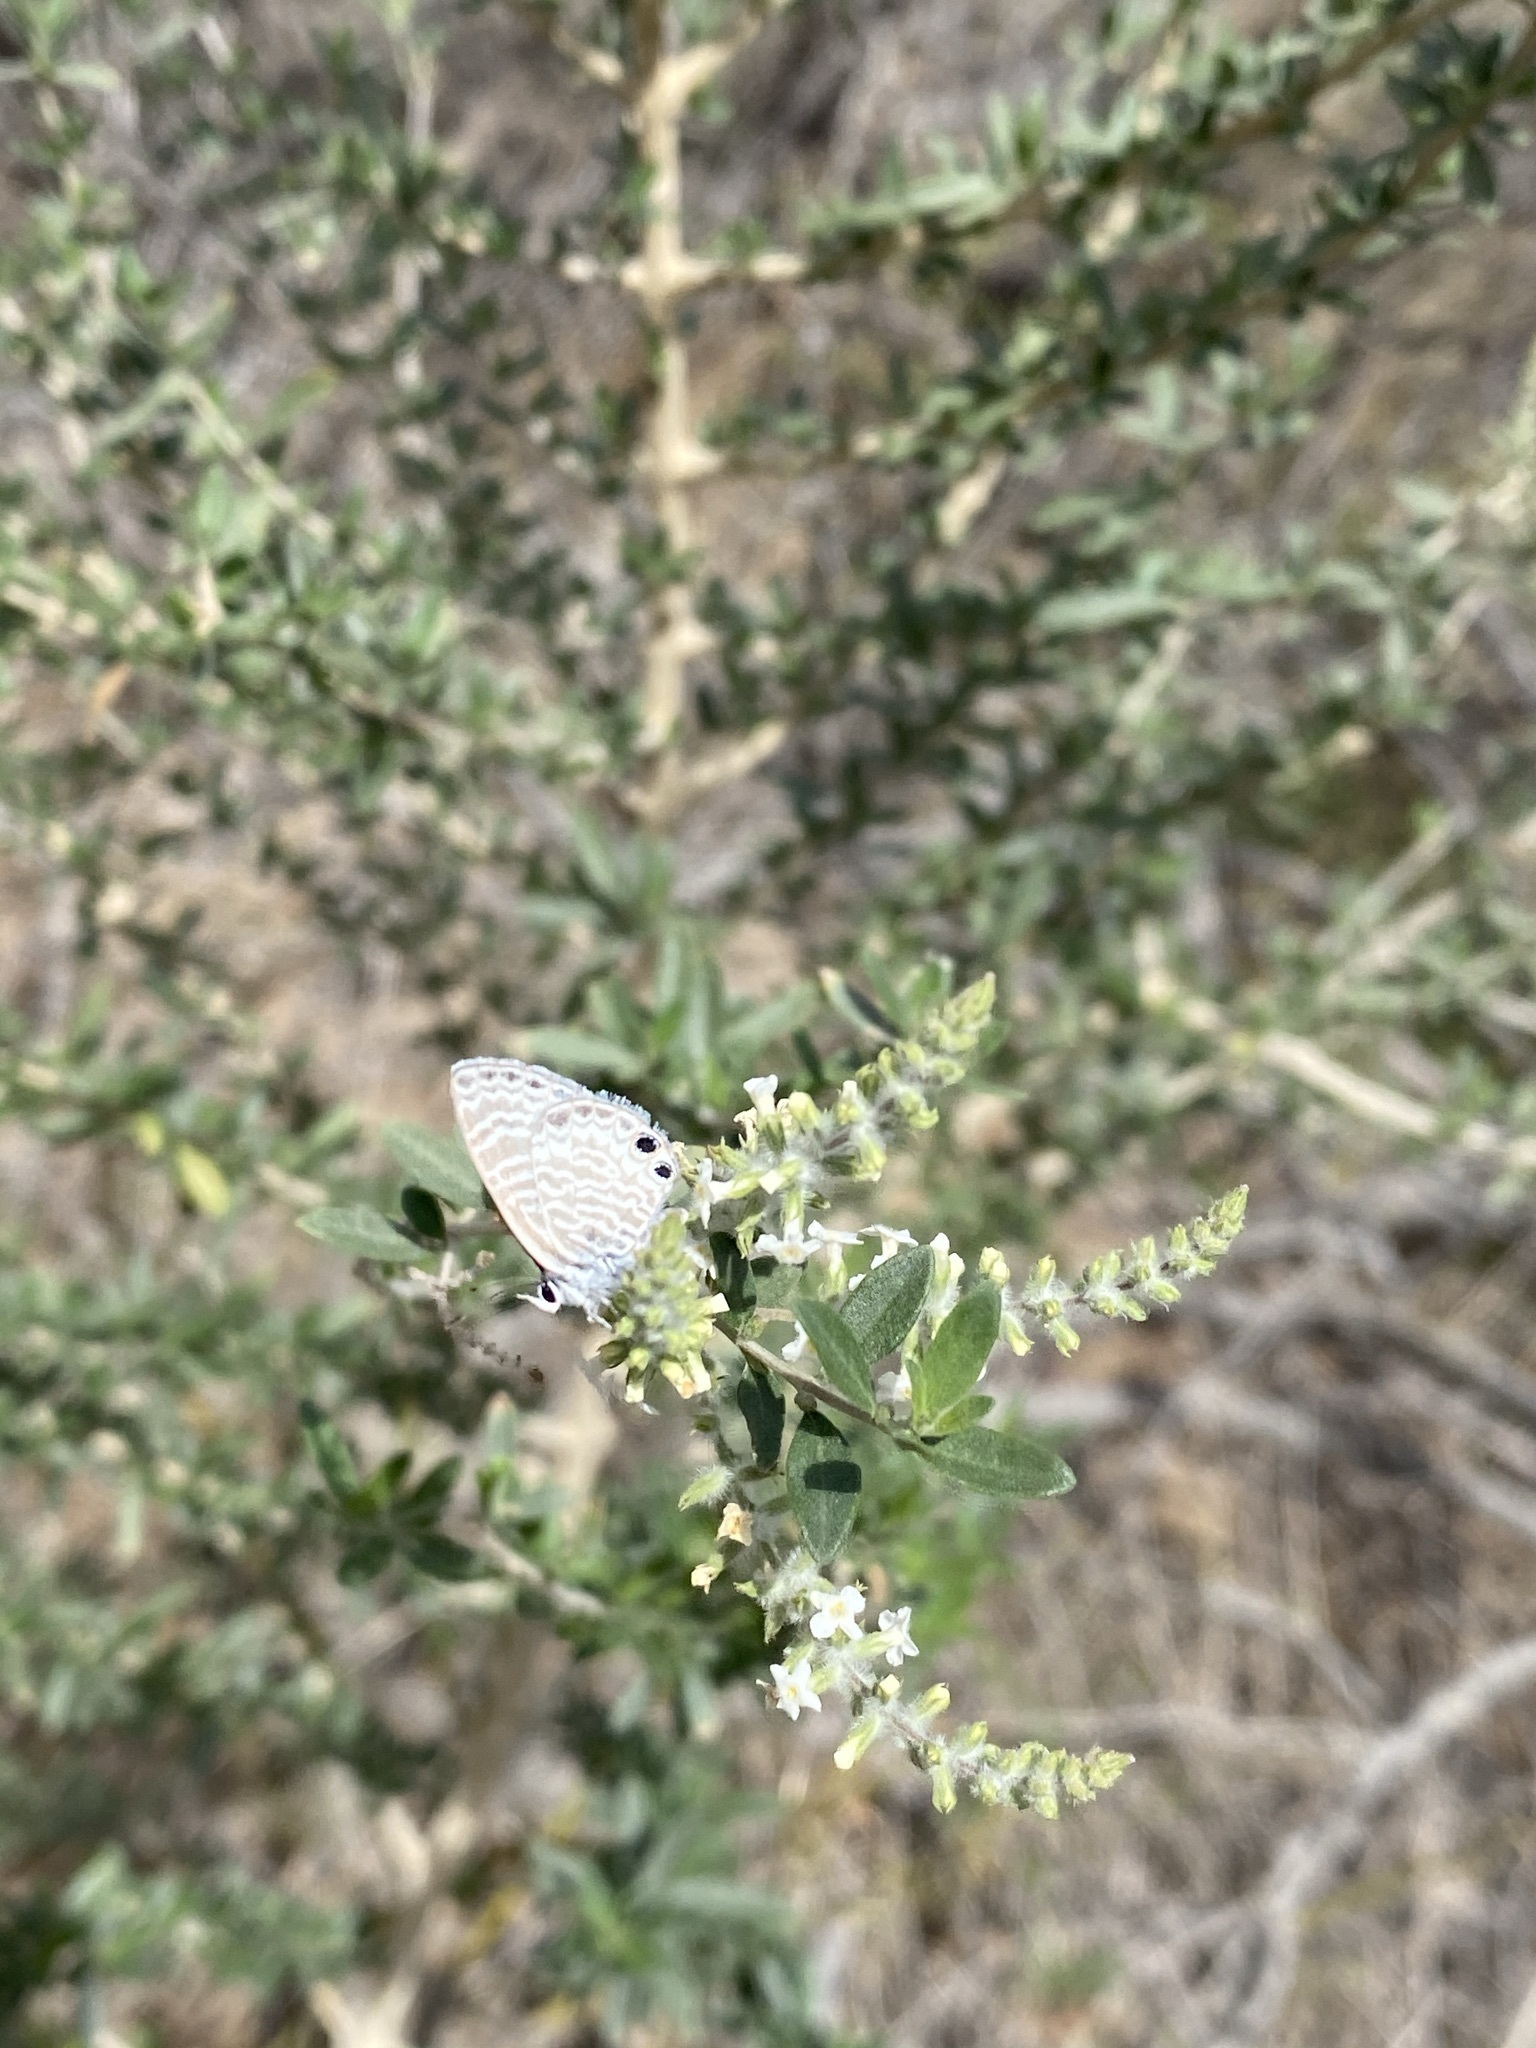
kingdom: Animalia
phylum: Arthropoda
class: Insecta
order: Lepidoptera
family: Lycaenidae
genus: Leptotes
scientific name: Leptotes marina
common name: Marine blue
